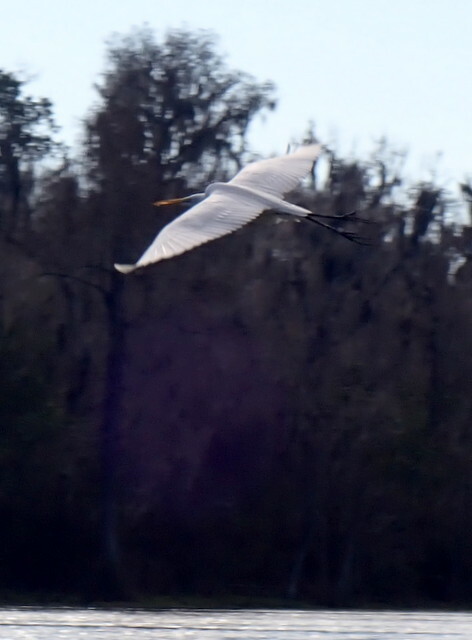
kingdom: Animalia
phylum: Chordata
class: Aves
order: Pelecaniformes
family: Ardeidae
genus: Ardea
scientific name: Ardea alba
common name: Great egret
